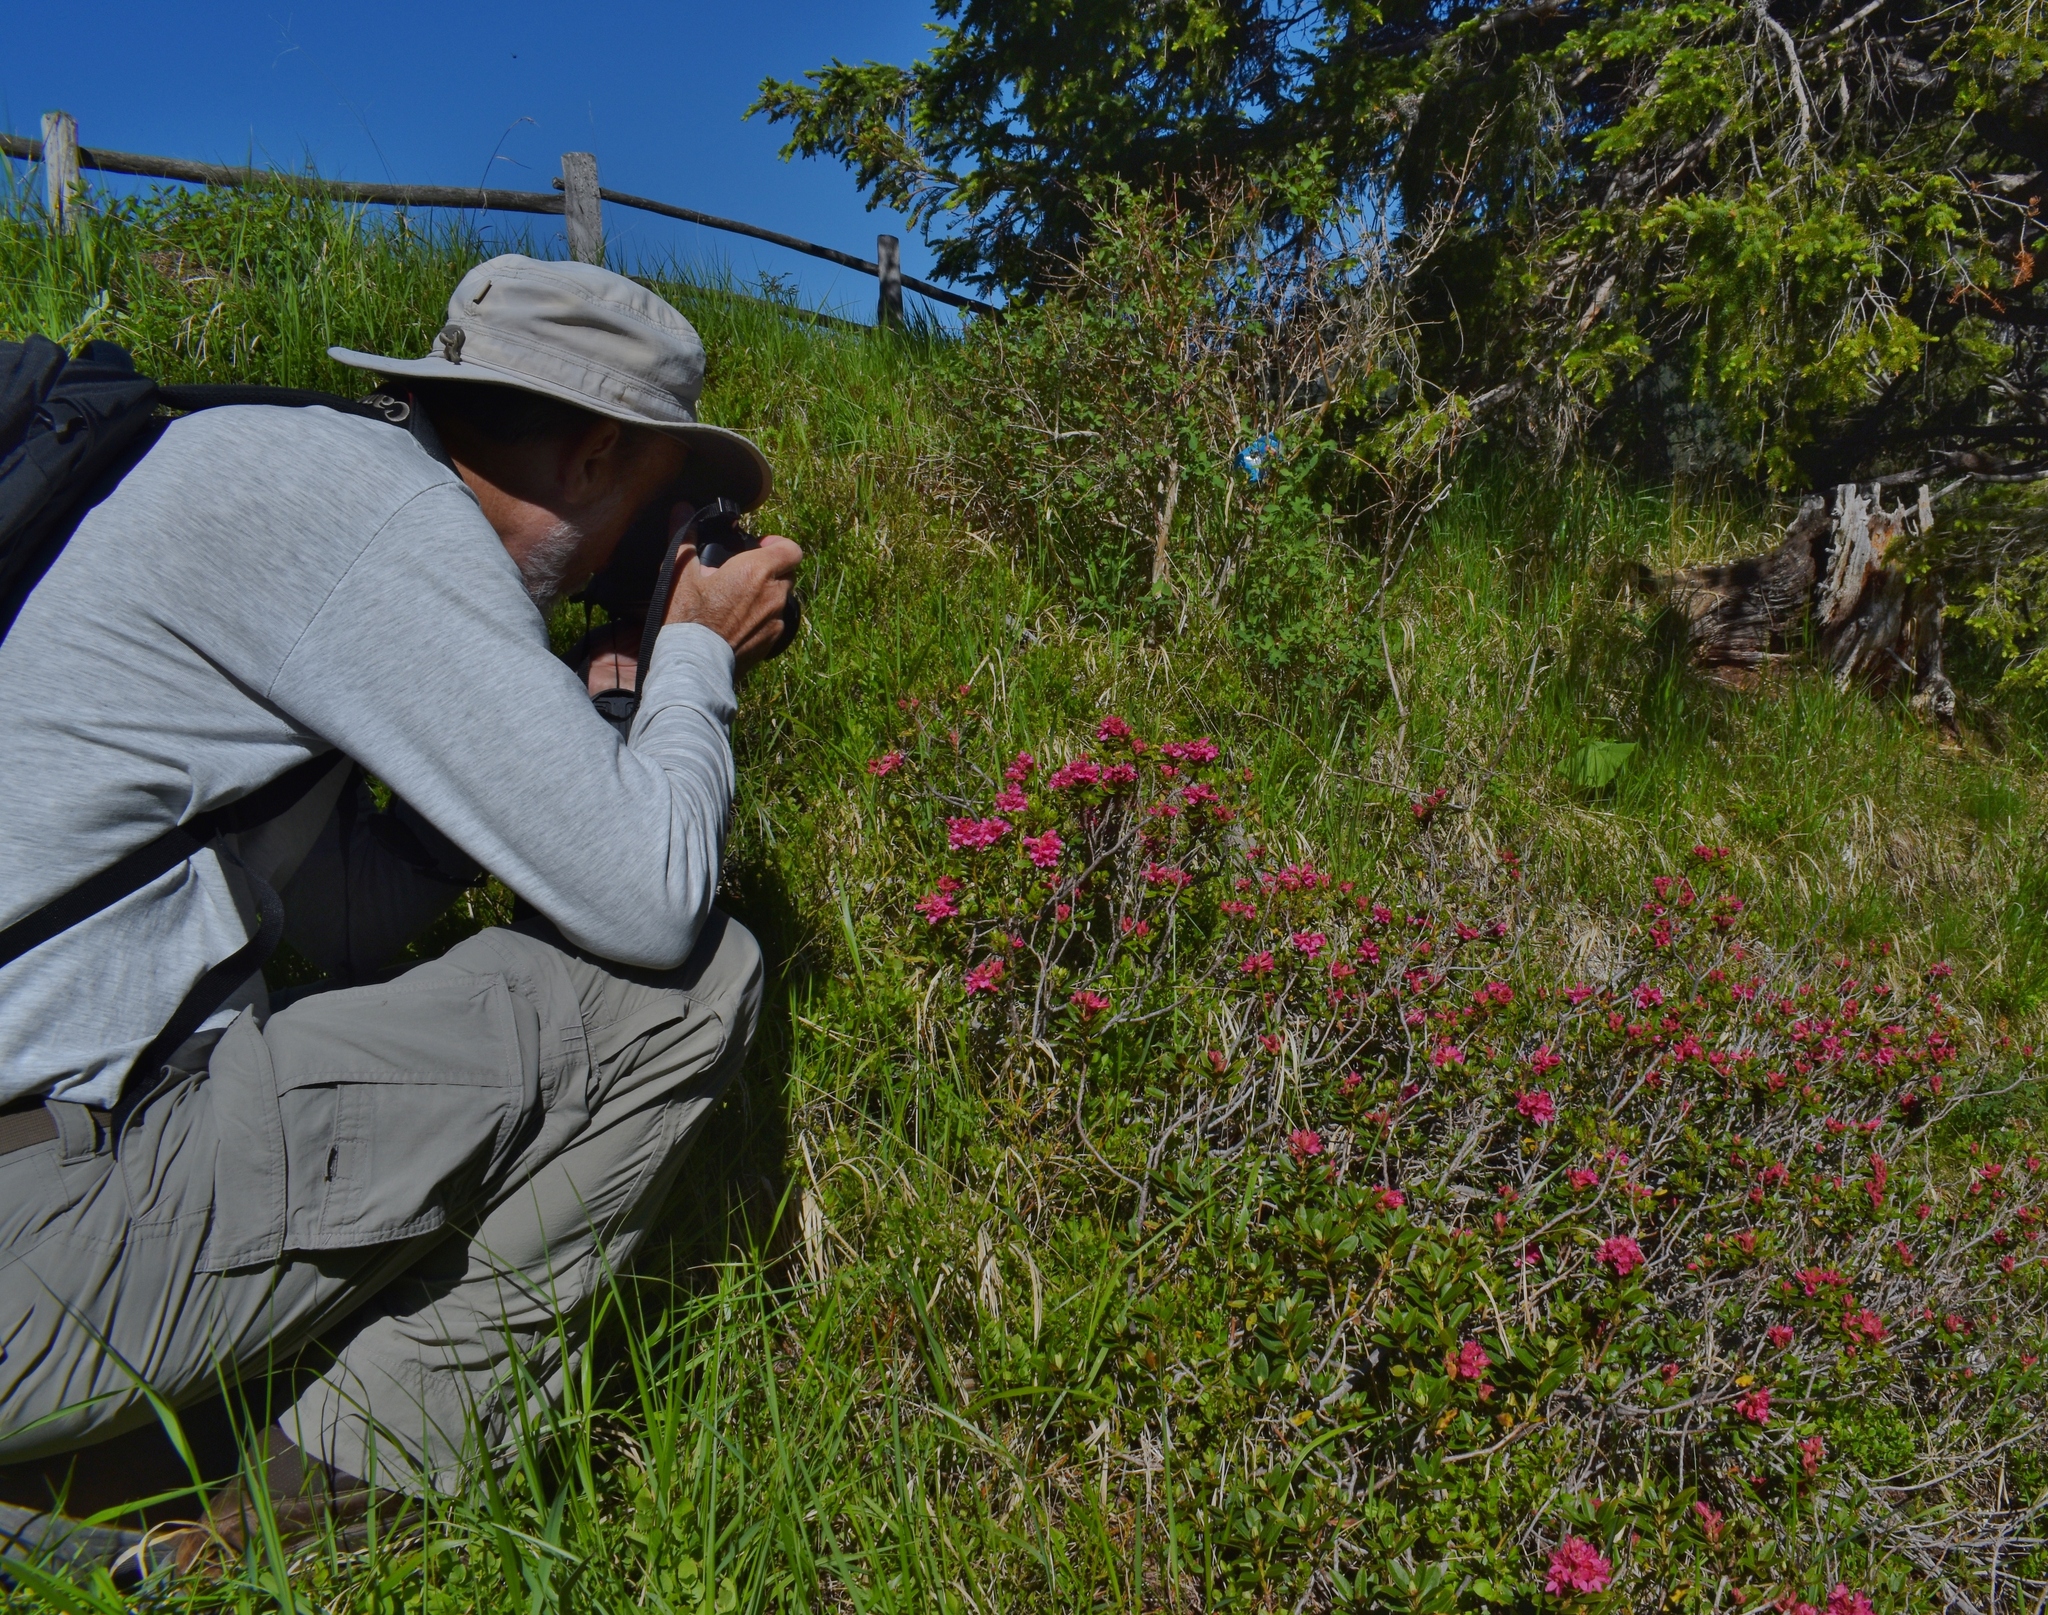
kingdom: Plantae
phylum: Tracheophyta
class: Magnoliopsida
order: Ericales
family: Ericaceae
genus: Rhododendron
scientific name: Rhododendron ferrugineum
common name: Alpenrose
